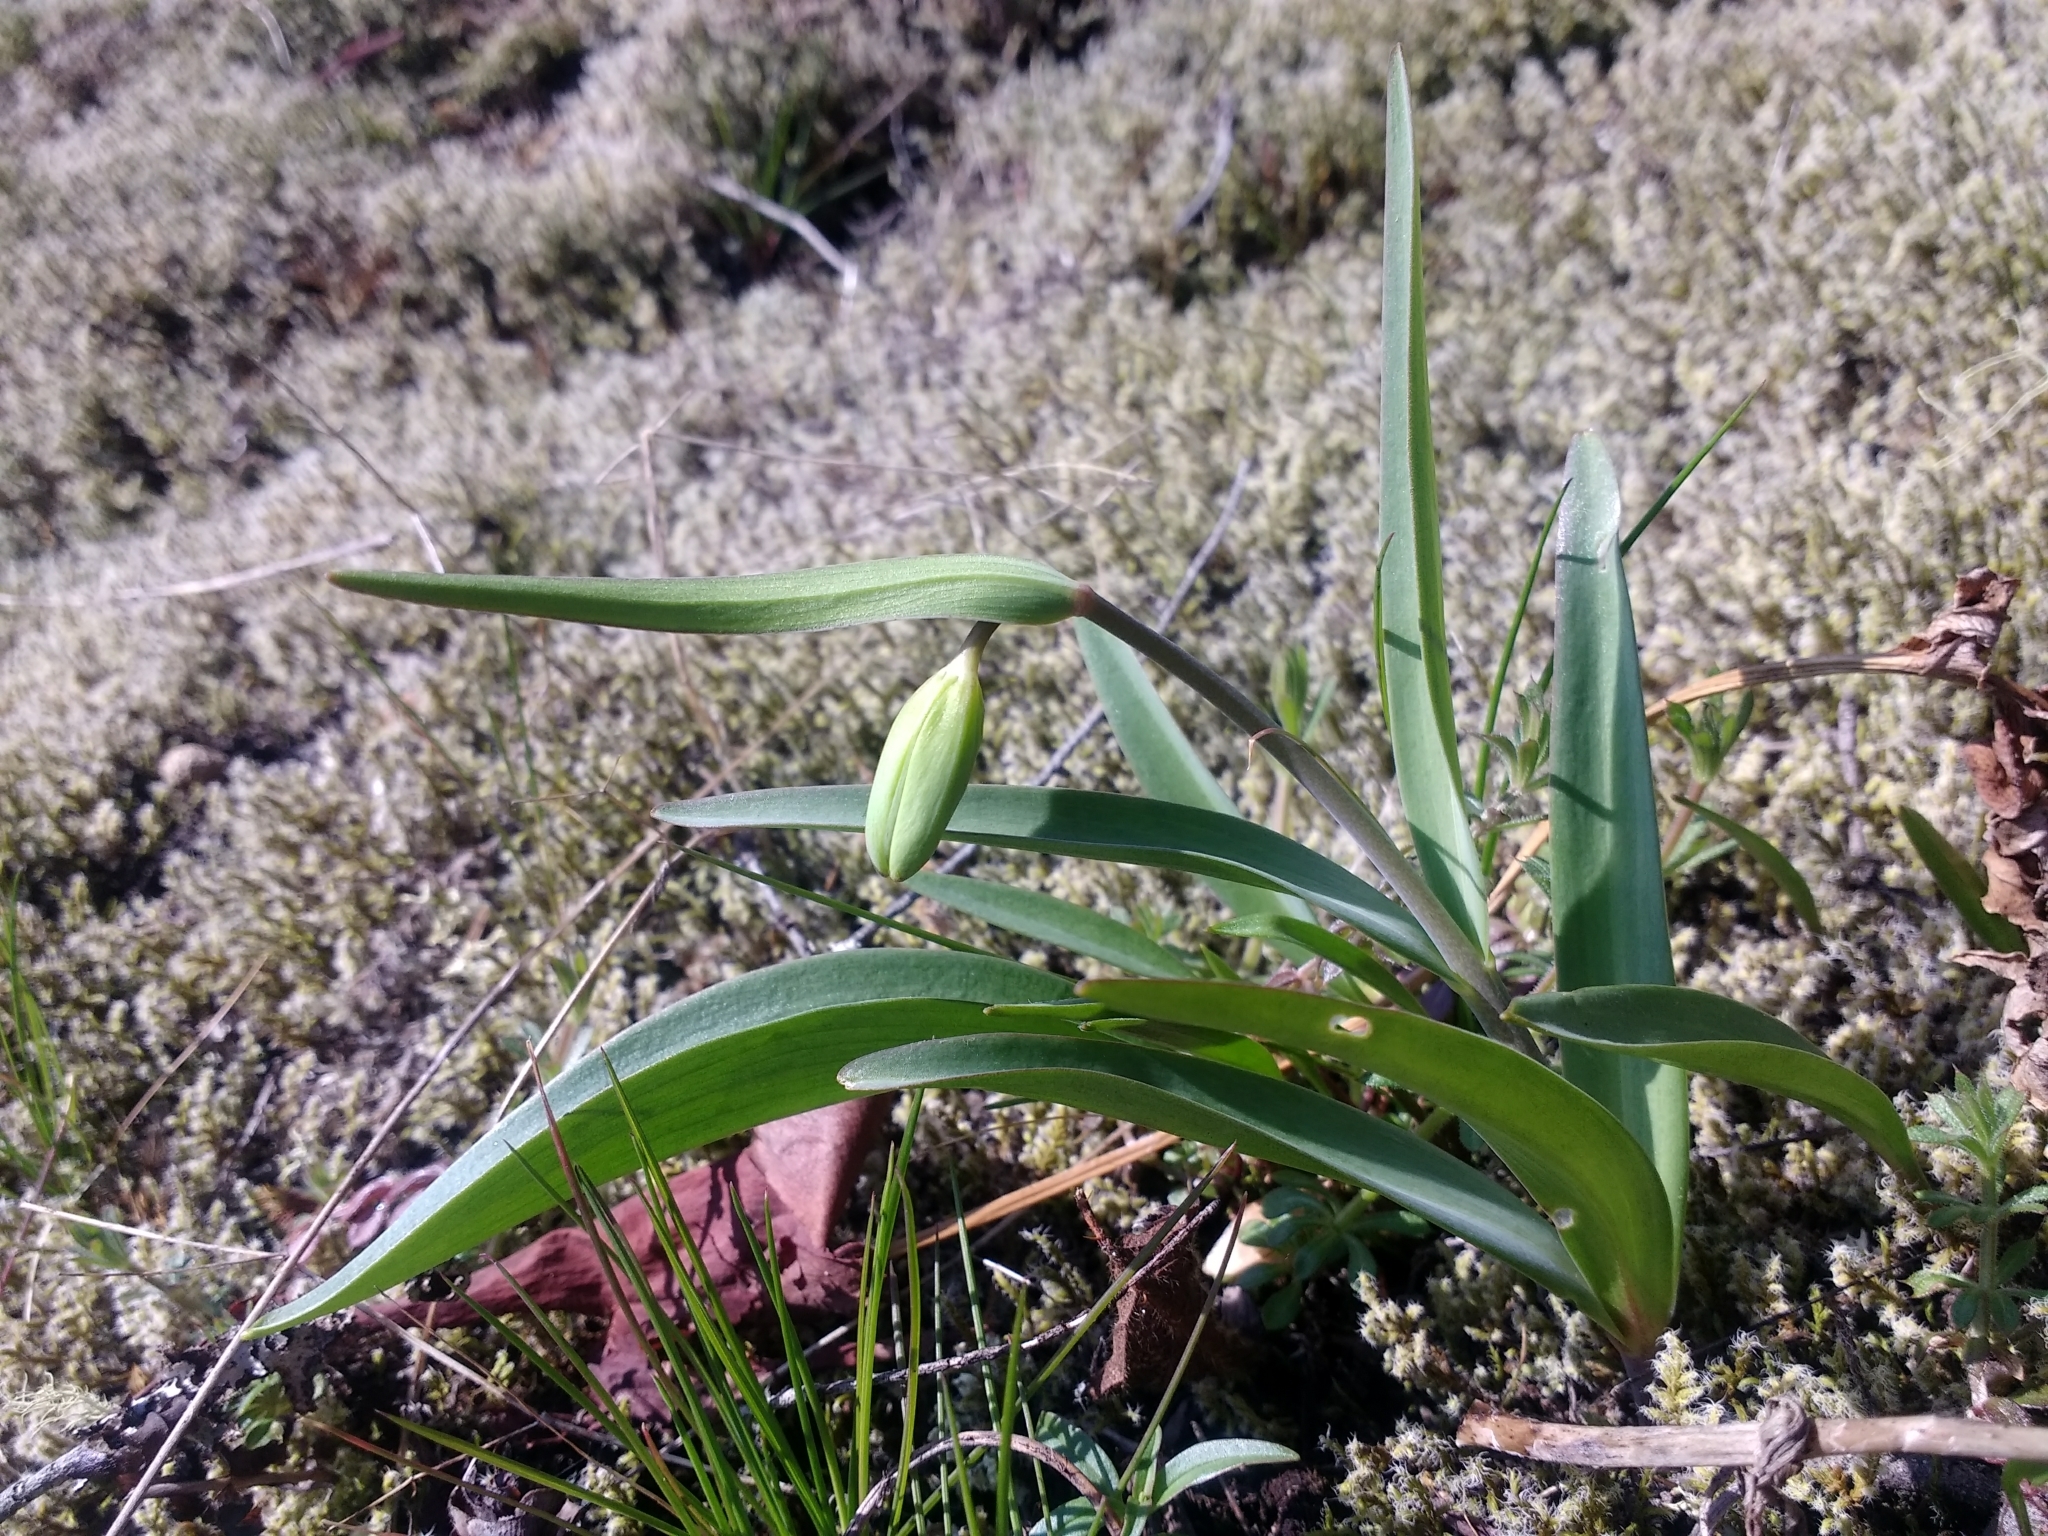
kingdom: Plantae
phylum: Tracheophyta
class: Liliopsida
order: Liliales
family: Liliaceae
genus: Fritillaria
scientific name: Fritillaria affinis
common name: Ojai fritillary
